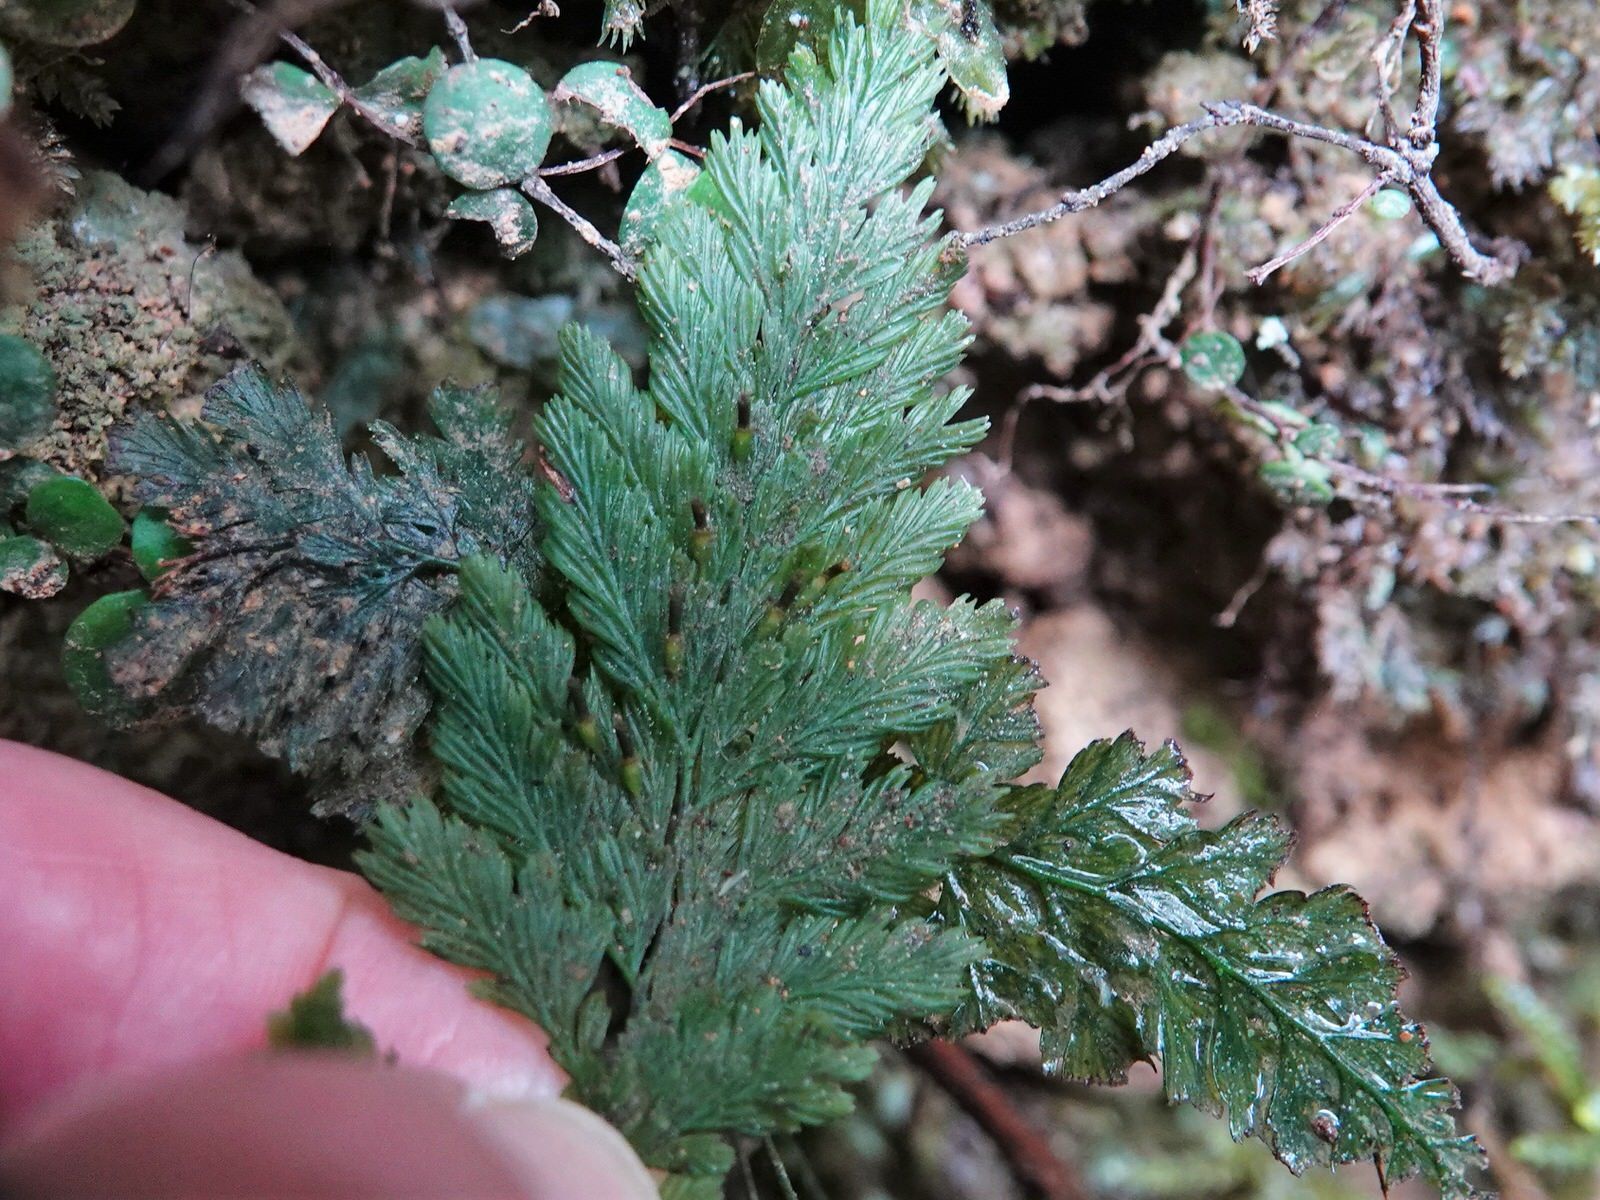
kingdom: Plantae
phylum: Tracheophyta
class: Polypodiopsida
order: Hymenophyllales
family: Hymenophyllaceae
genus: Abrodictyum
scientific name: Abrodictyum elongatum
